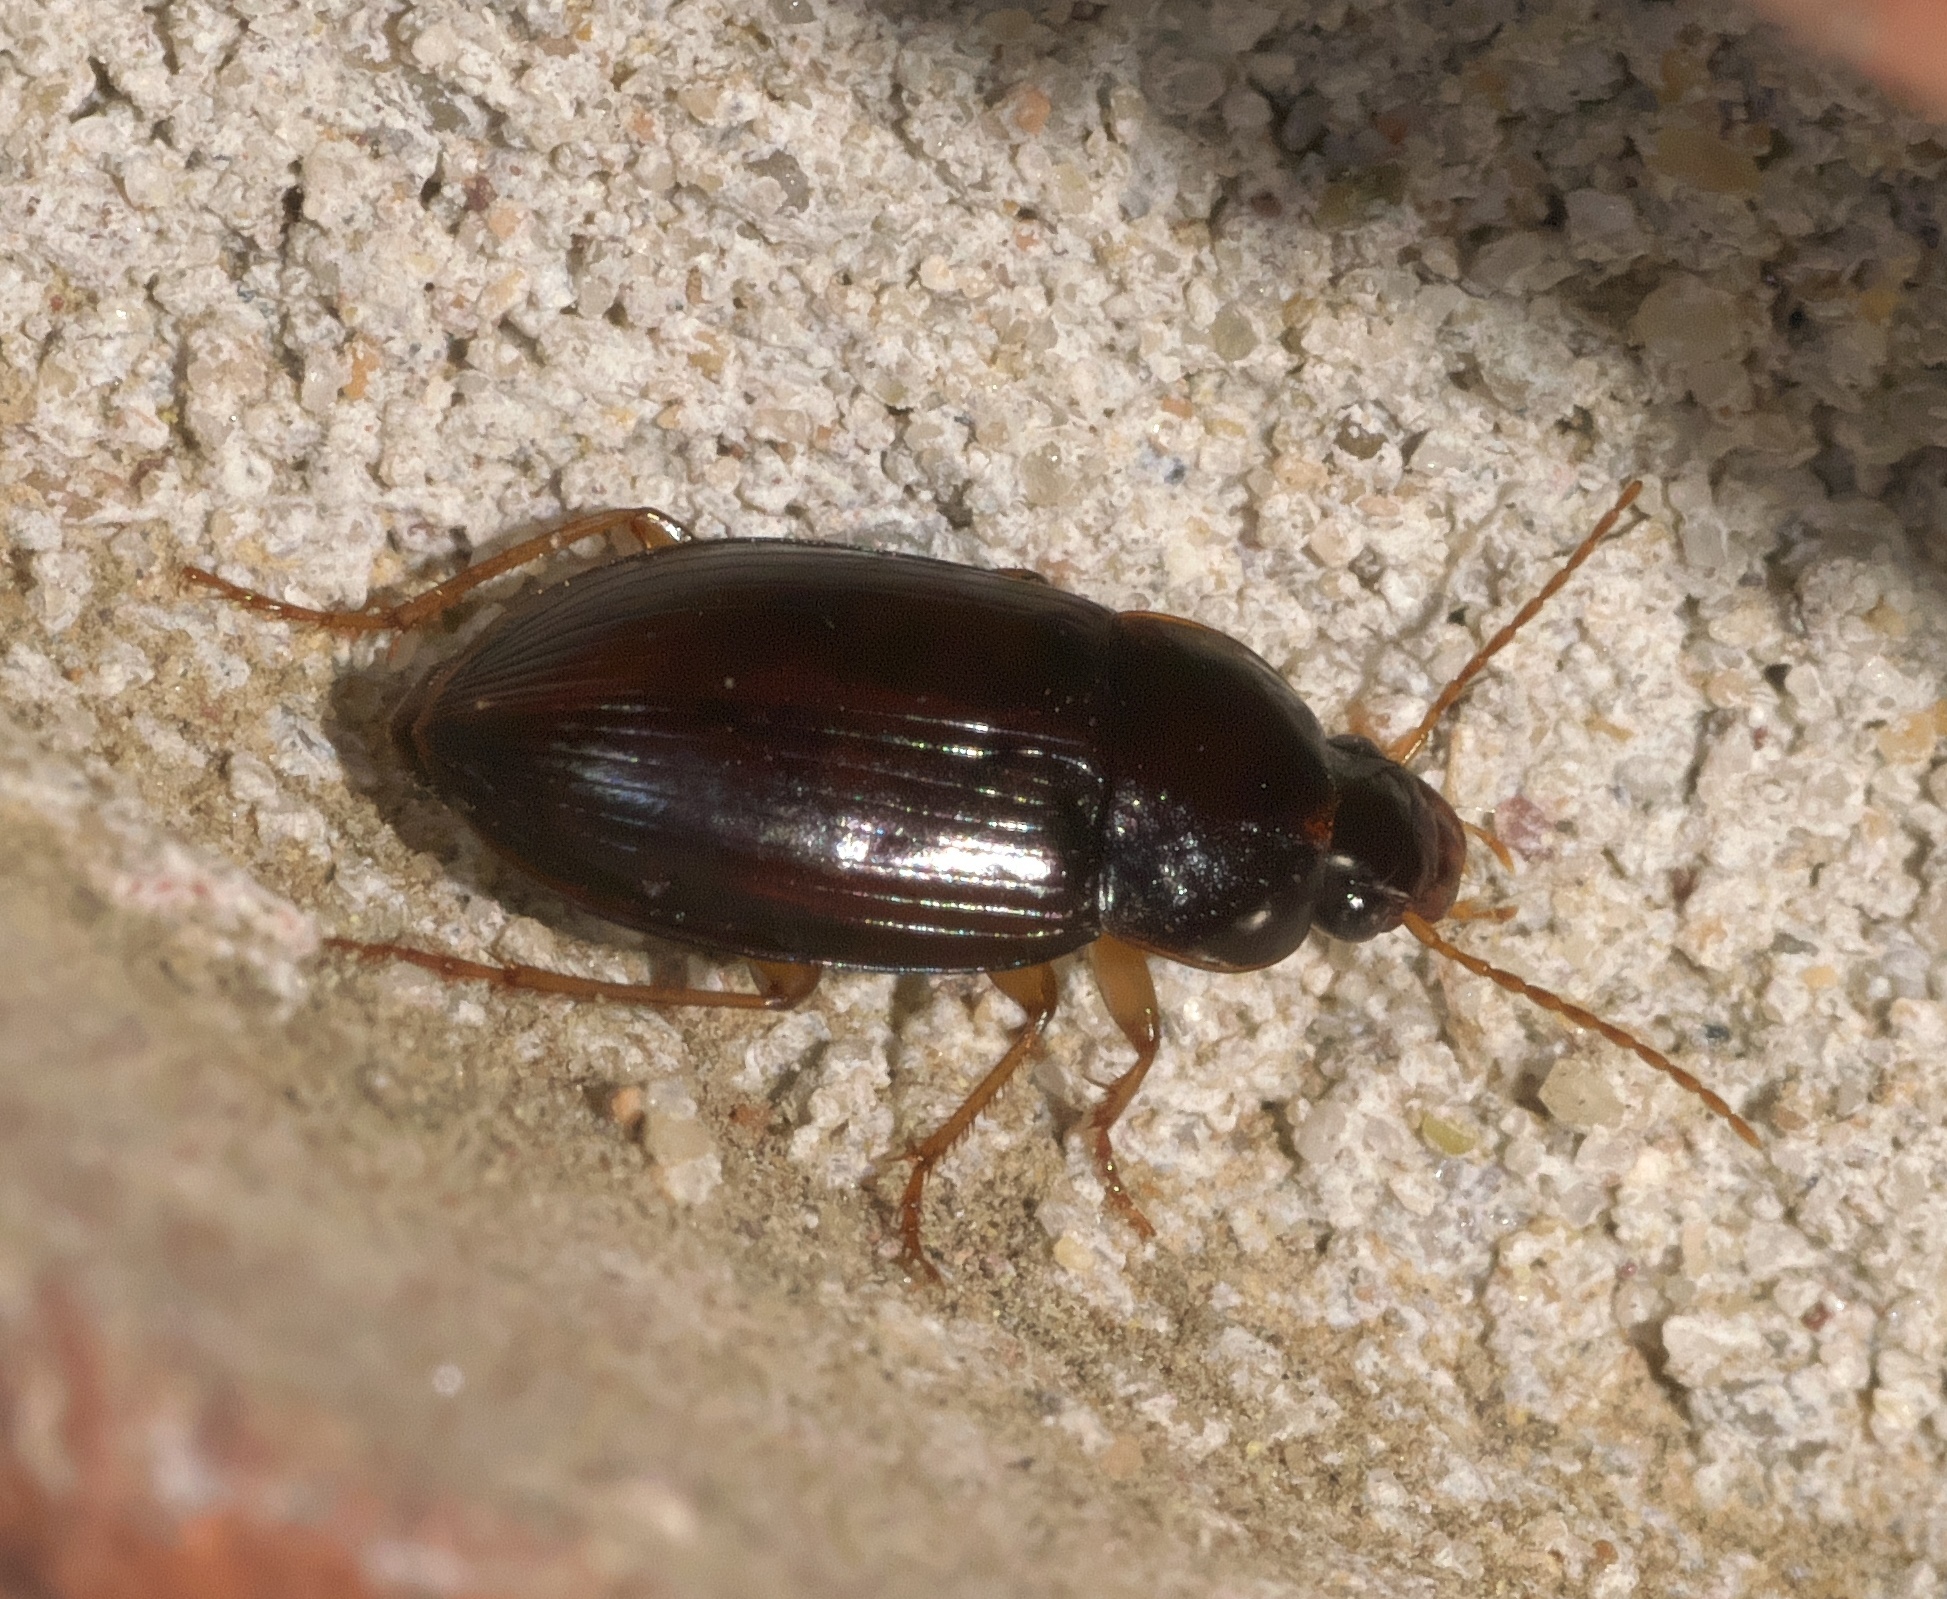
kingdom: Animalia
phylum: Arthropoda
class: Insecta
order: Coleoptera
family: Carabidae
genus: Notiobia
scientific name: Notiobia terminata
